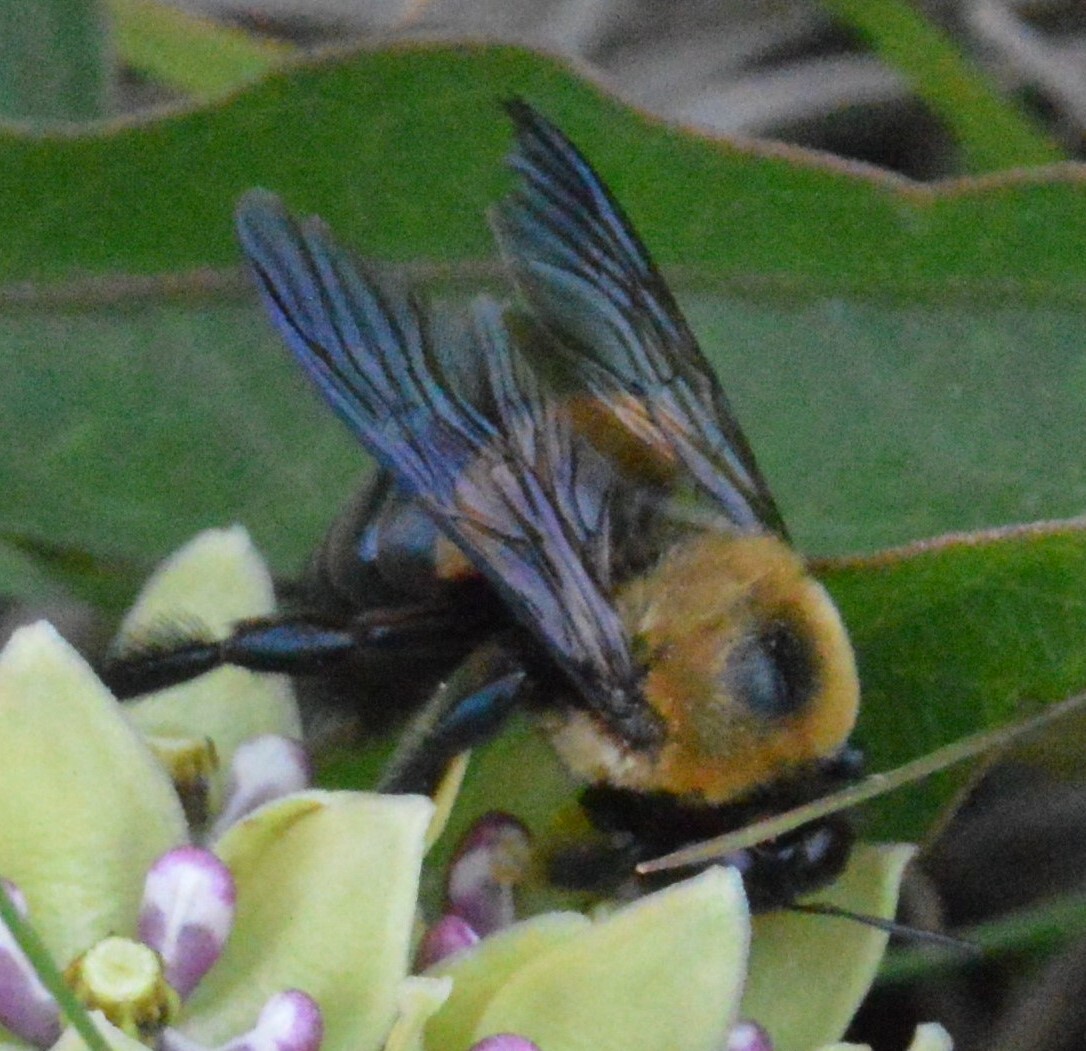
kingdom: Animalia
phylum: Arthropoda
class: Insecta
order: Hymenoptera
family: Apidae
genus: Xylocopa
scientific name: Xylocopa virginica
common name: Carpenter bee
